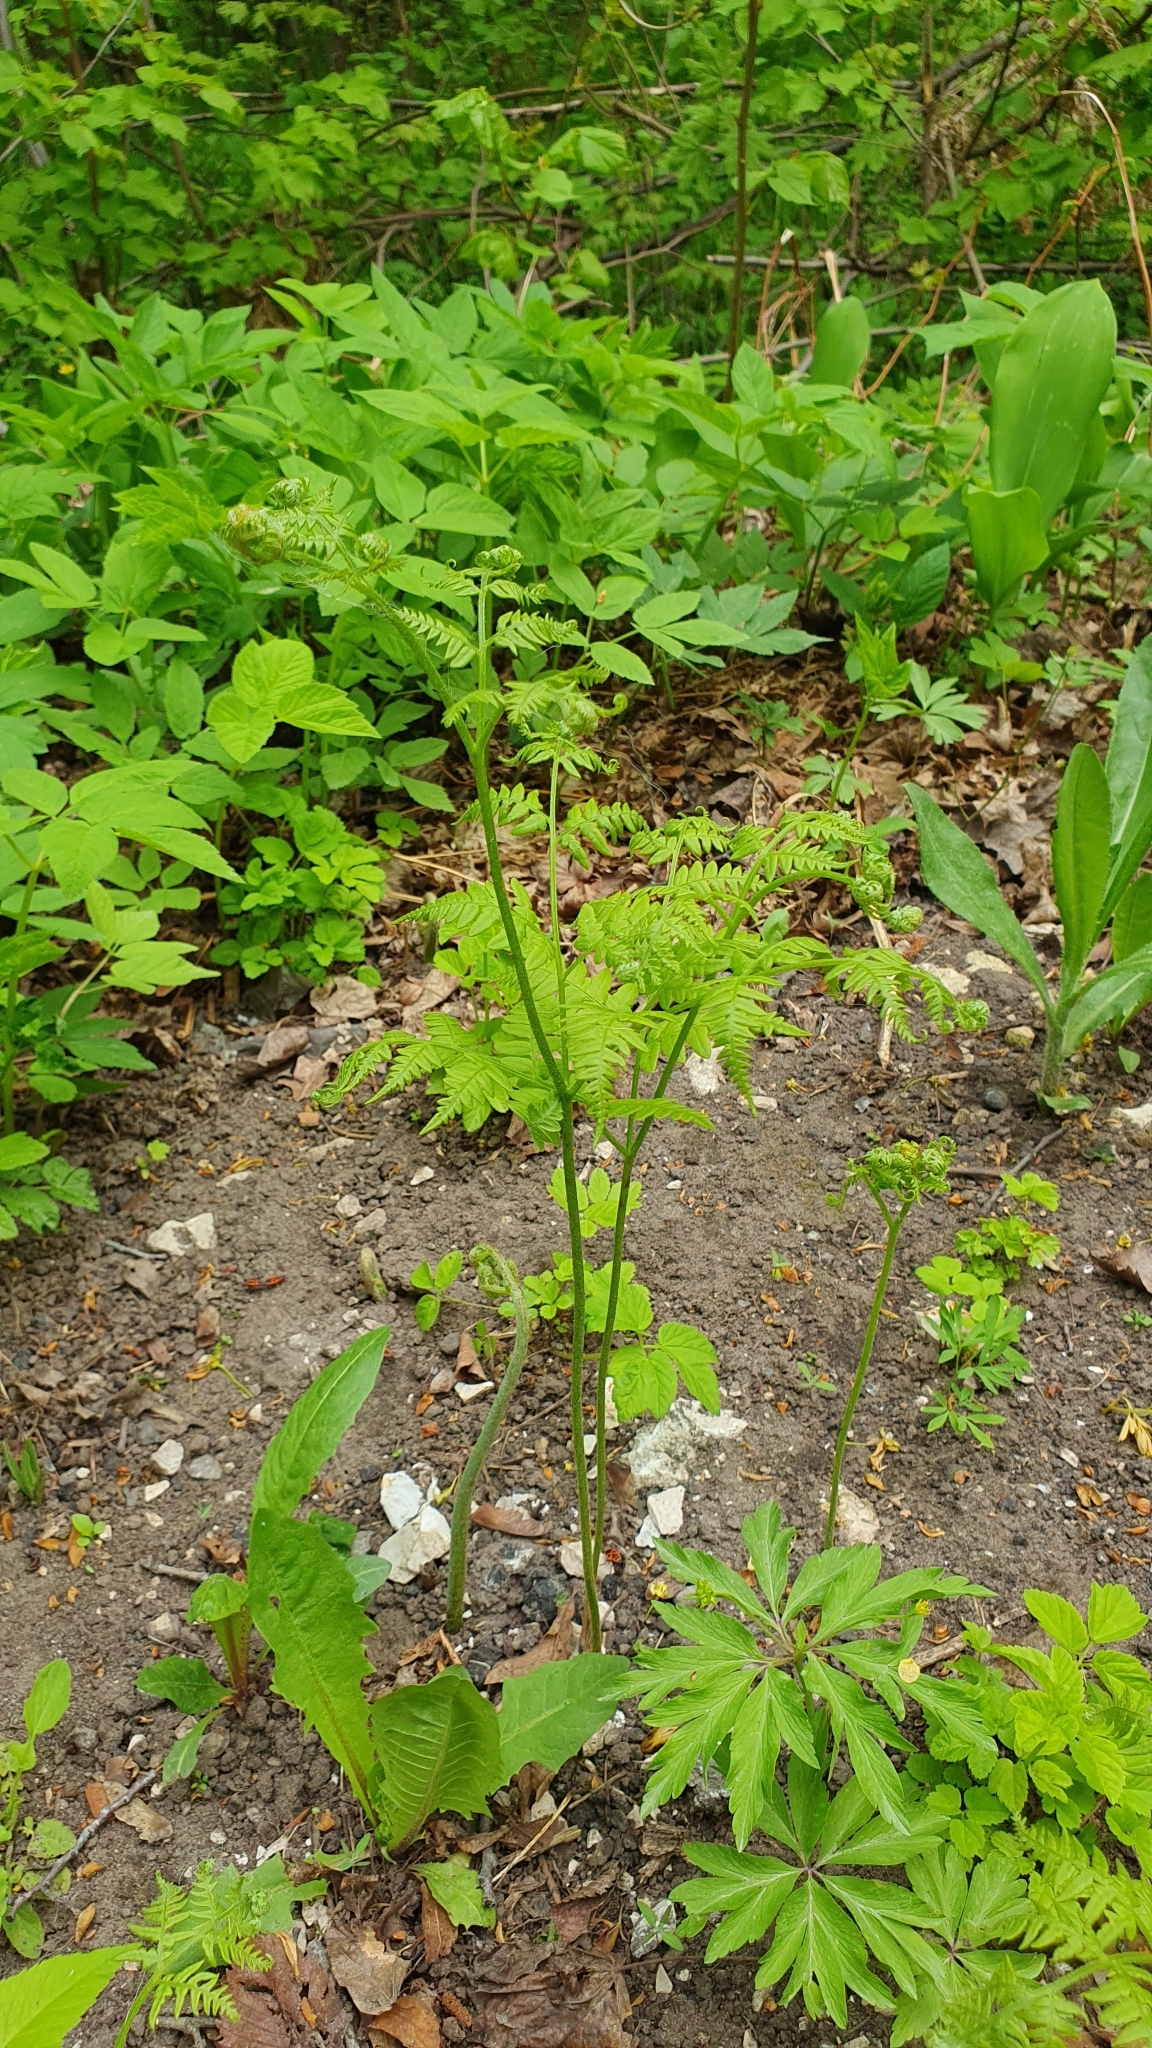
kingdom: Plantae
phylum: Tracheophyta
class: Polypodiopsida
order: Polypodiales
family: Dennstaedtiaceae
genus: Pteridium
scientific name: Pteridium aquilinum
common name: Bracken
